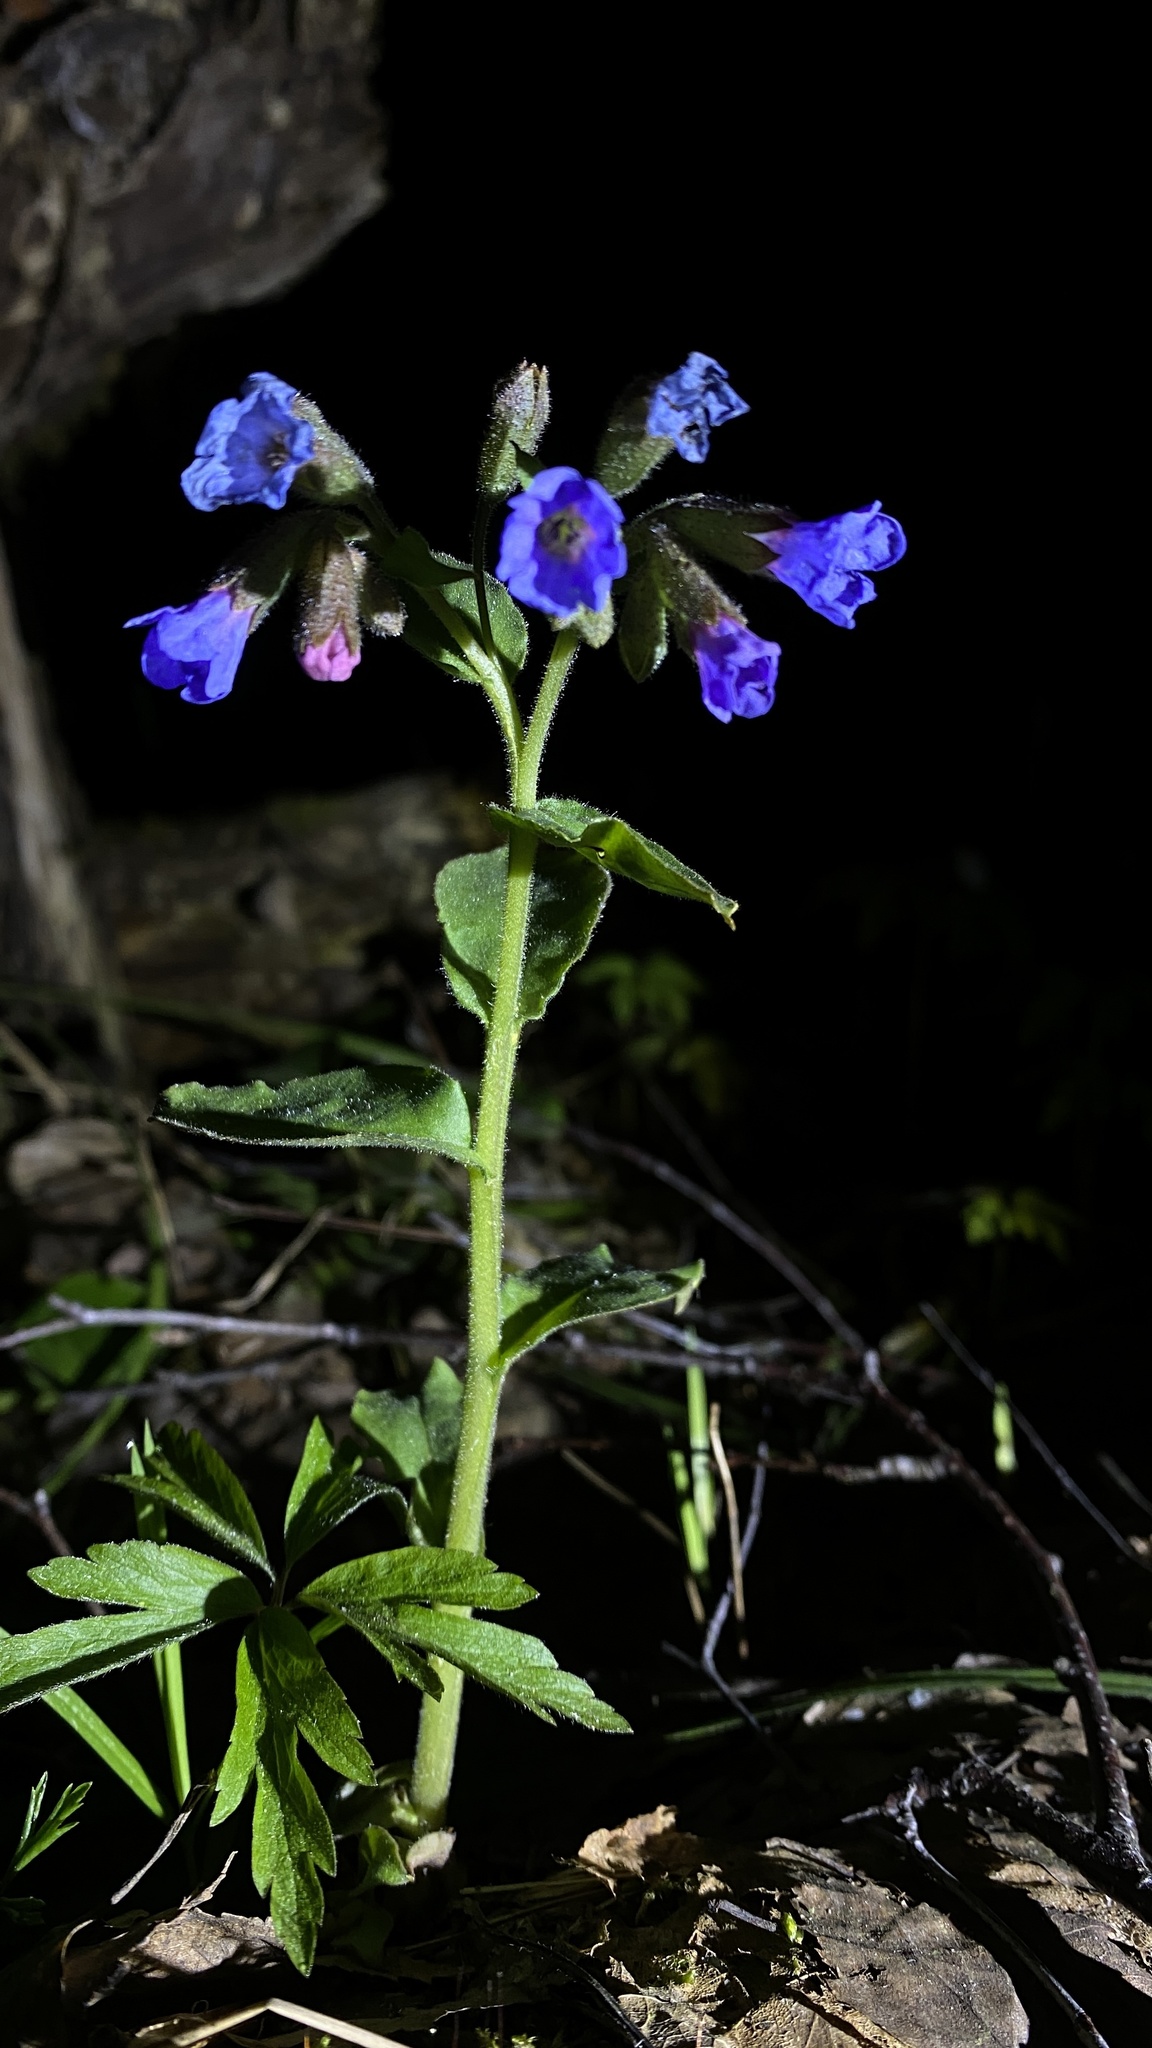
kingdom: Plantae
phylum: Tracheophyta
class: Magnoliopsida
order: Boraginales
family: Boraginaceae
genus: Pulmonaria
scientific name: Pulmonaria obscura
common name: Suffolk lungwort
